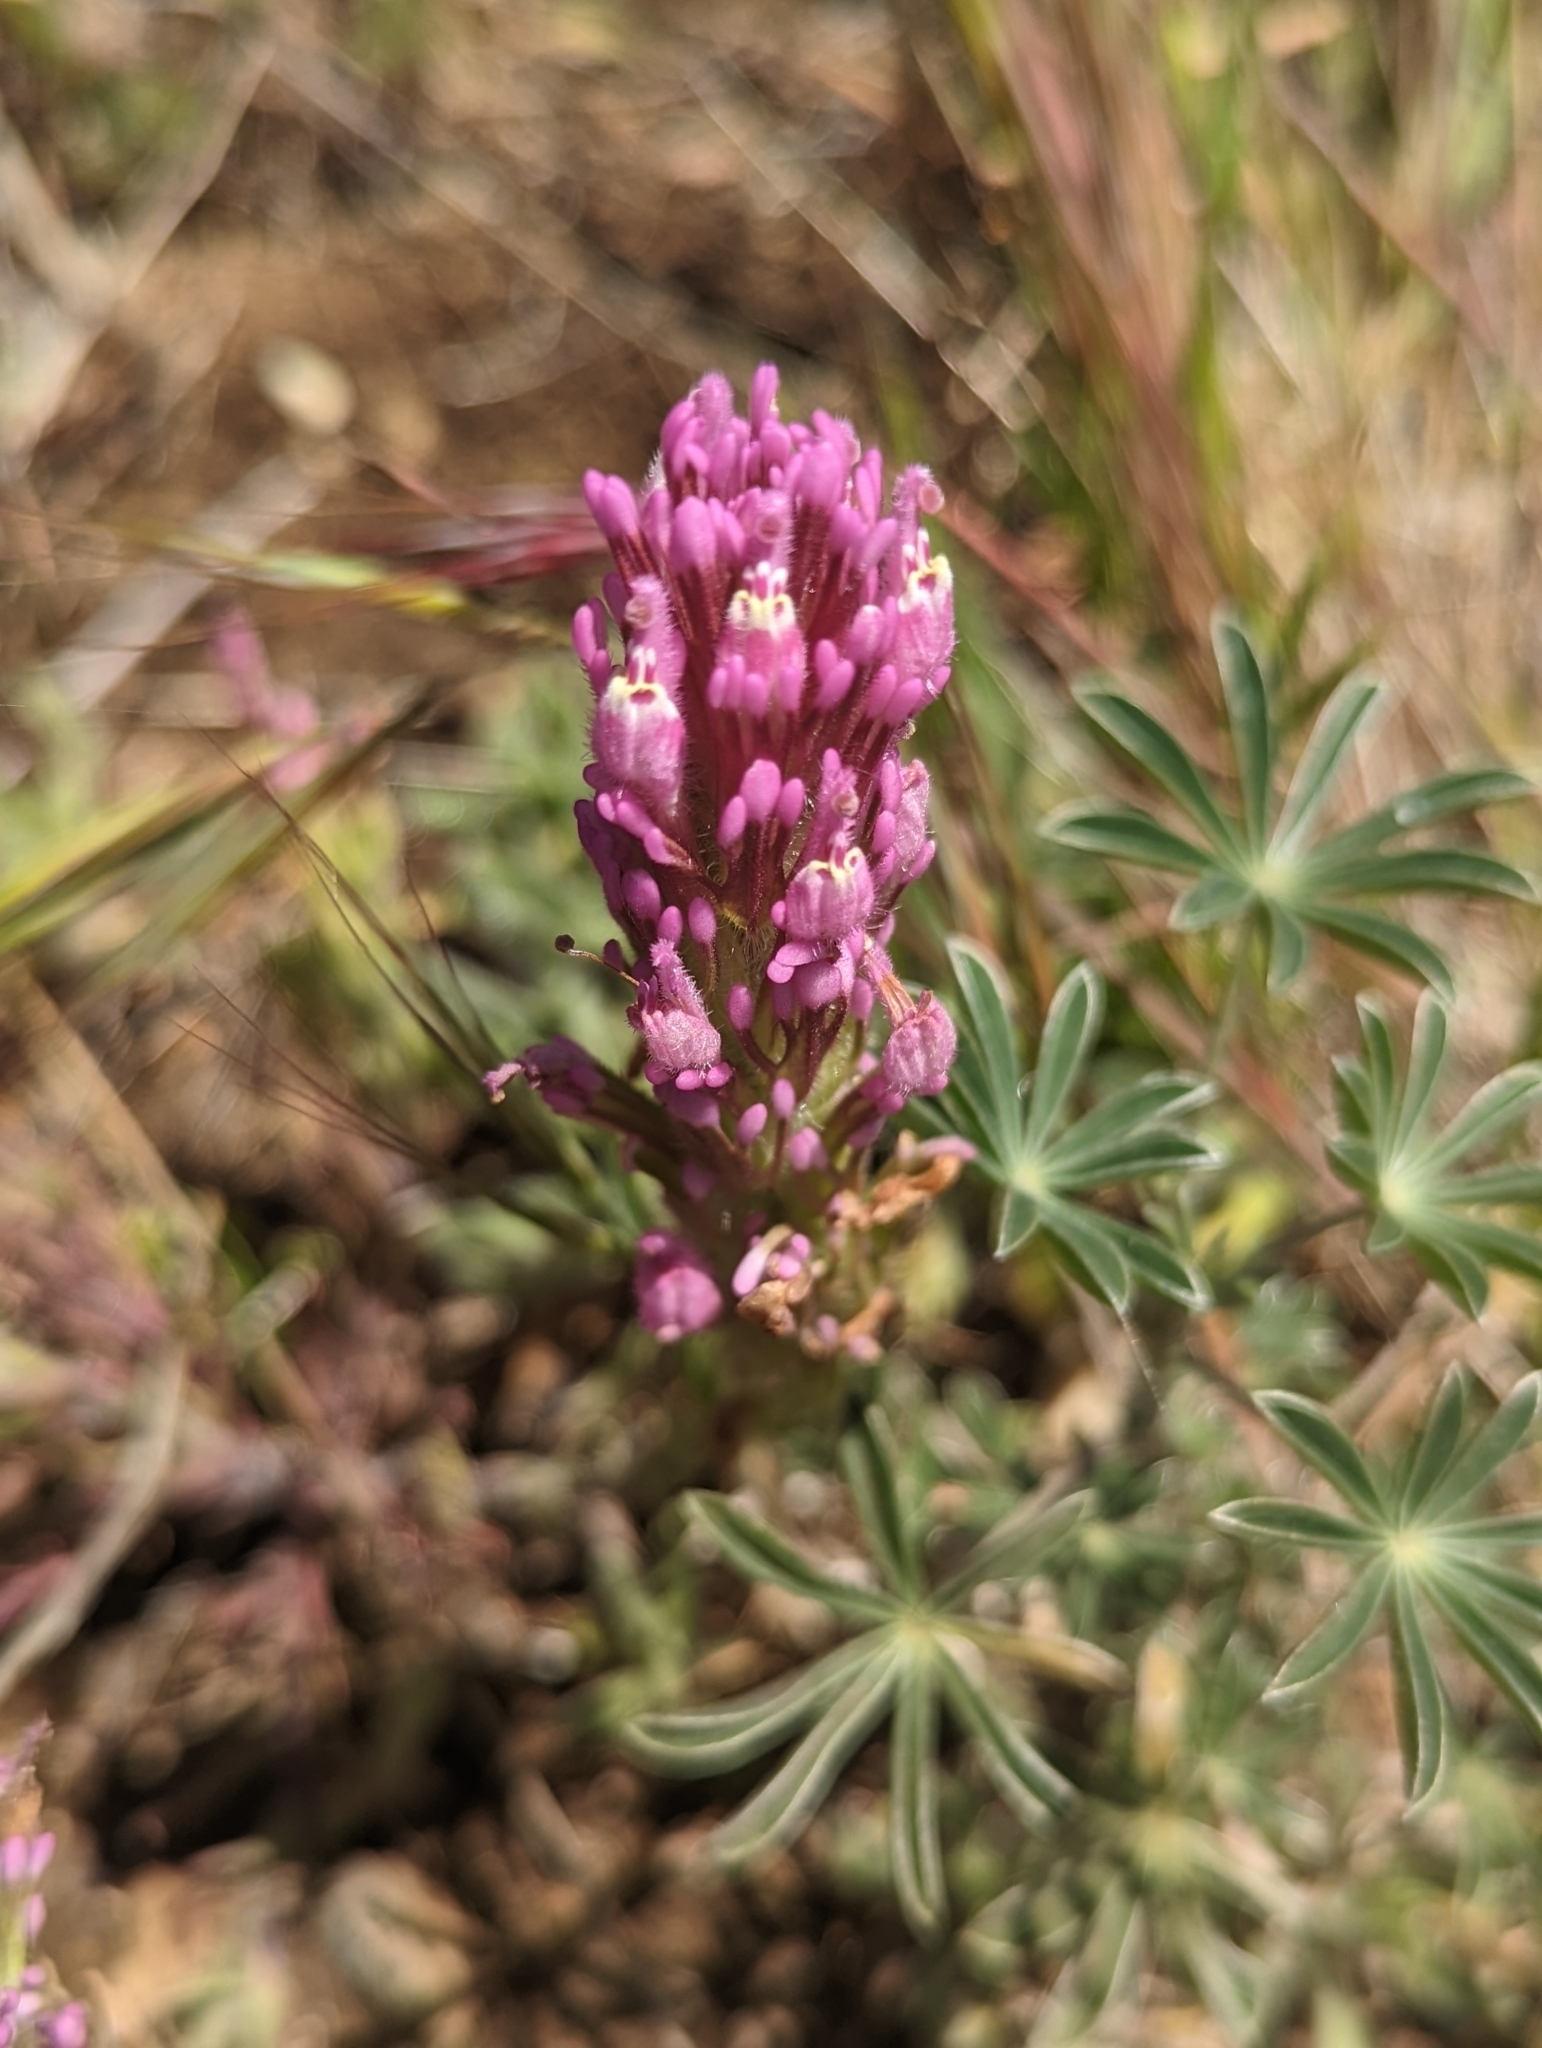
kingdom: Plantae
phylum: Tracheophyta
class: Magnoliopsida
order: Lamiales
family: Orobanchaceae
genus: Castilleja
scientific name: Castilleja exserta
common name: Purple owl-clover
